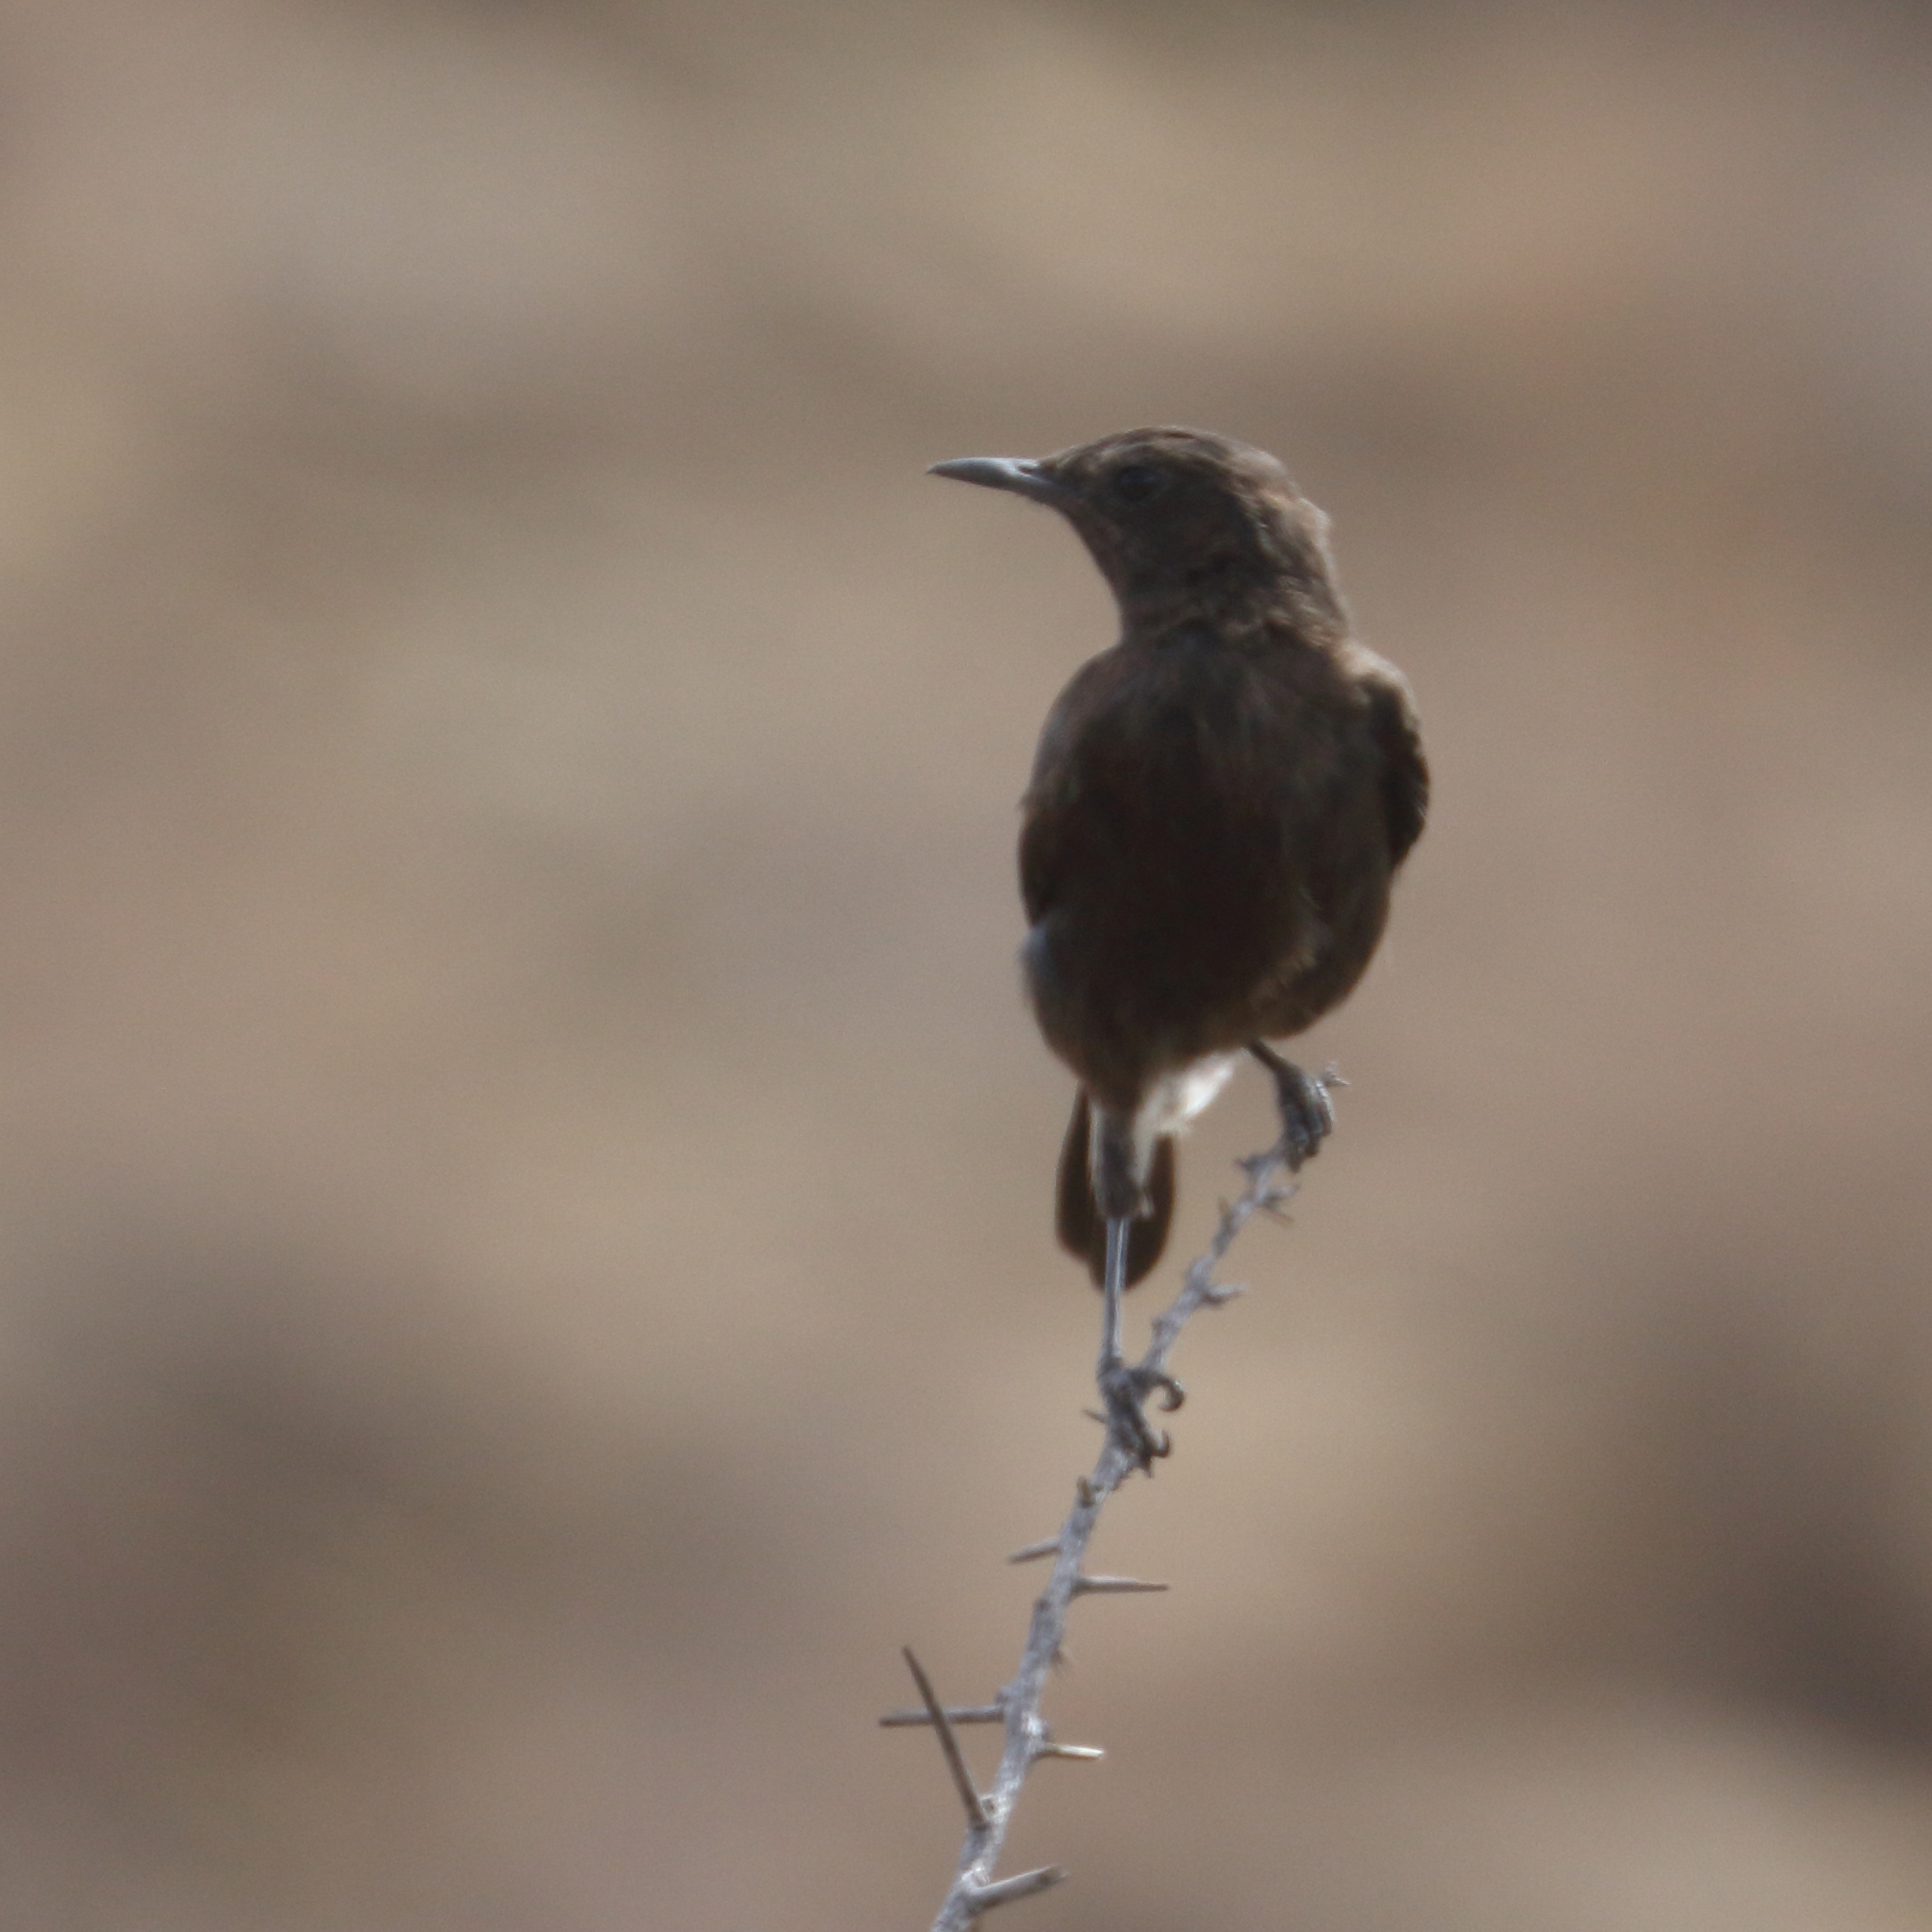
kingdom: Animalia
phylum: Chordata
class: Aves
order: Passeriformes
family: Muscicapidae
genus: Oenanthe
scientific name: Oenanthe monticola
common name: Mountain wheatear
